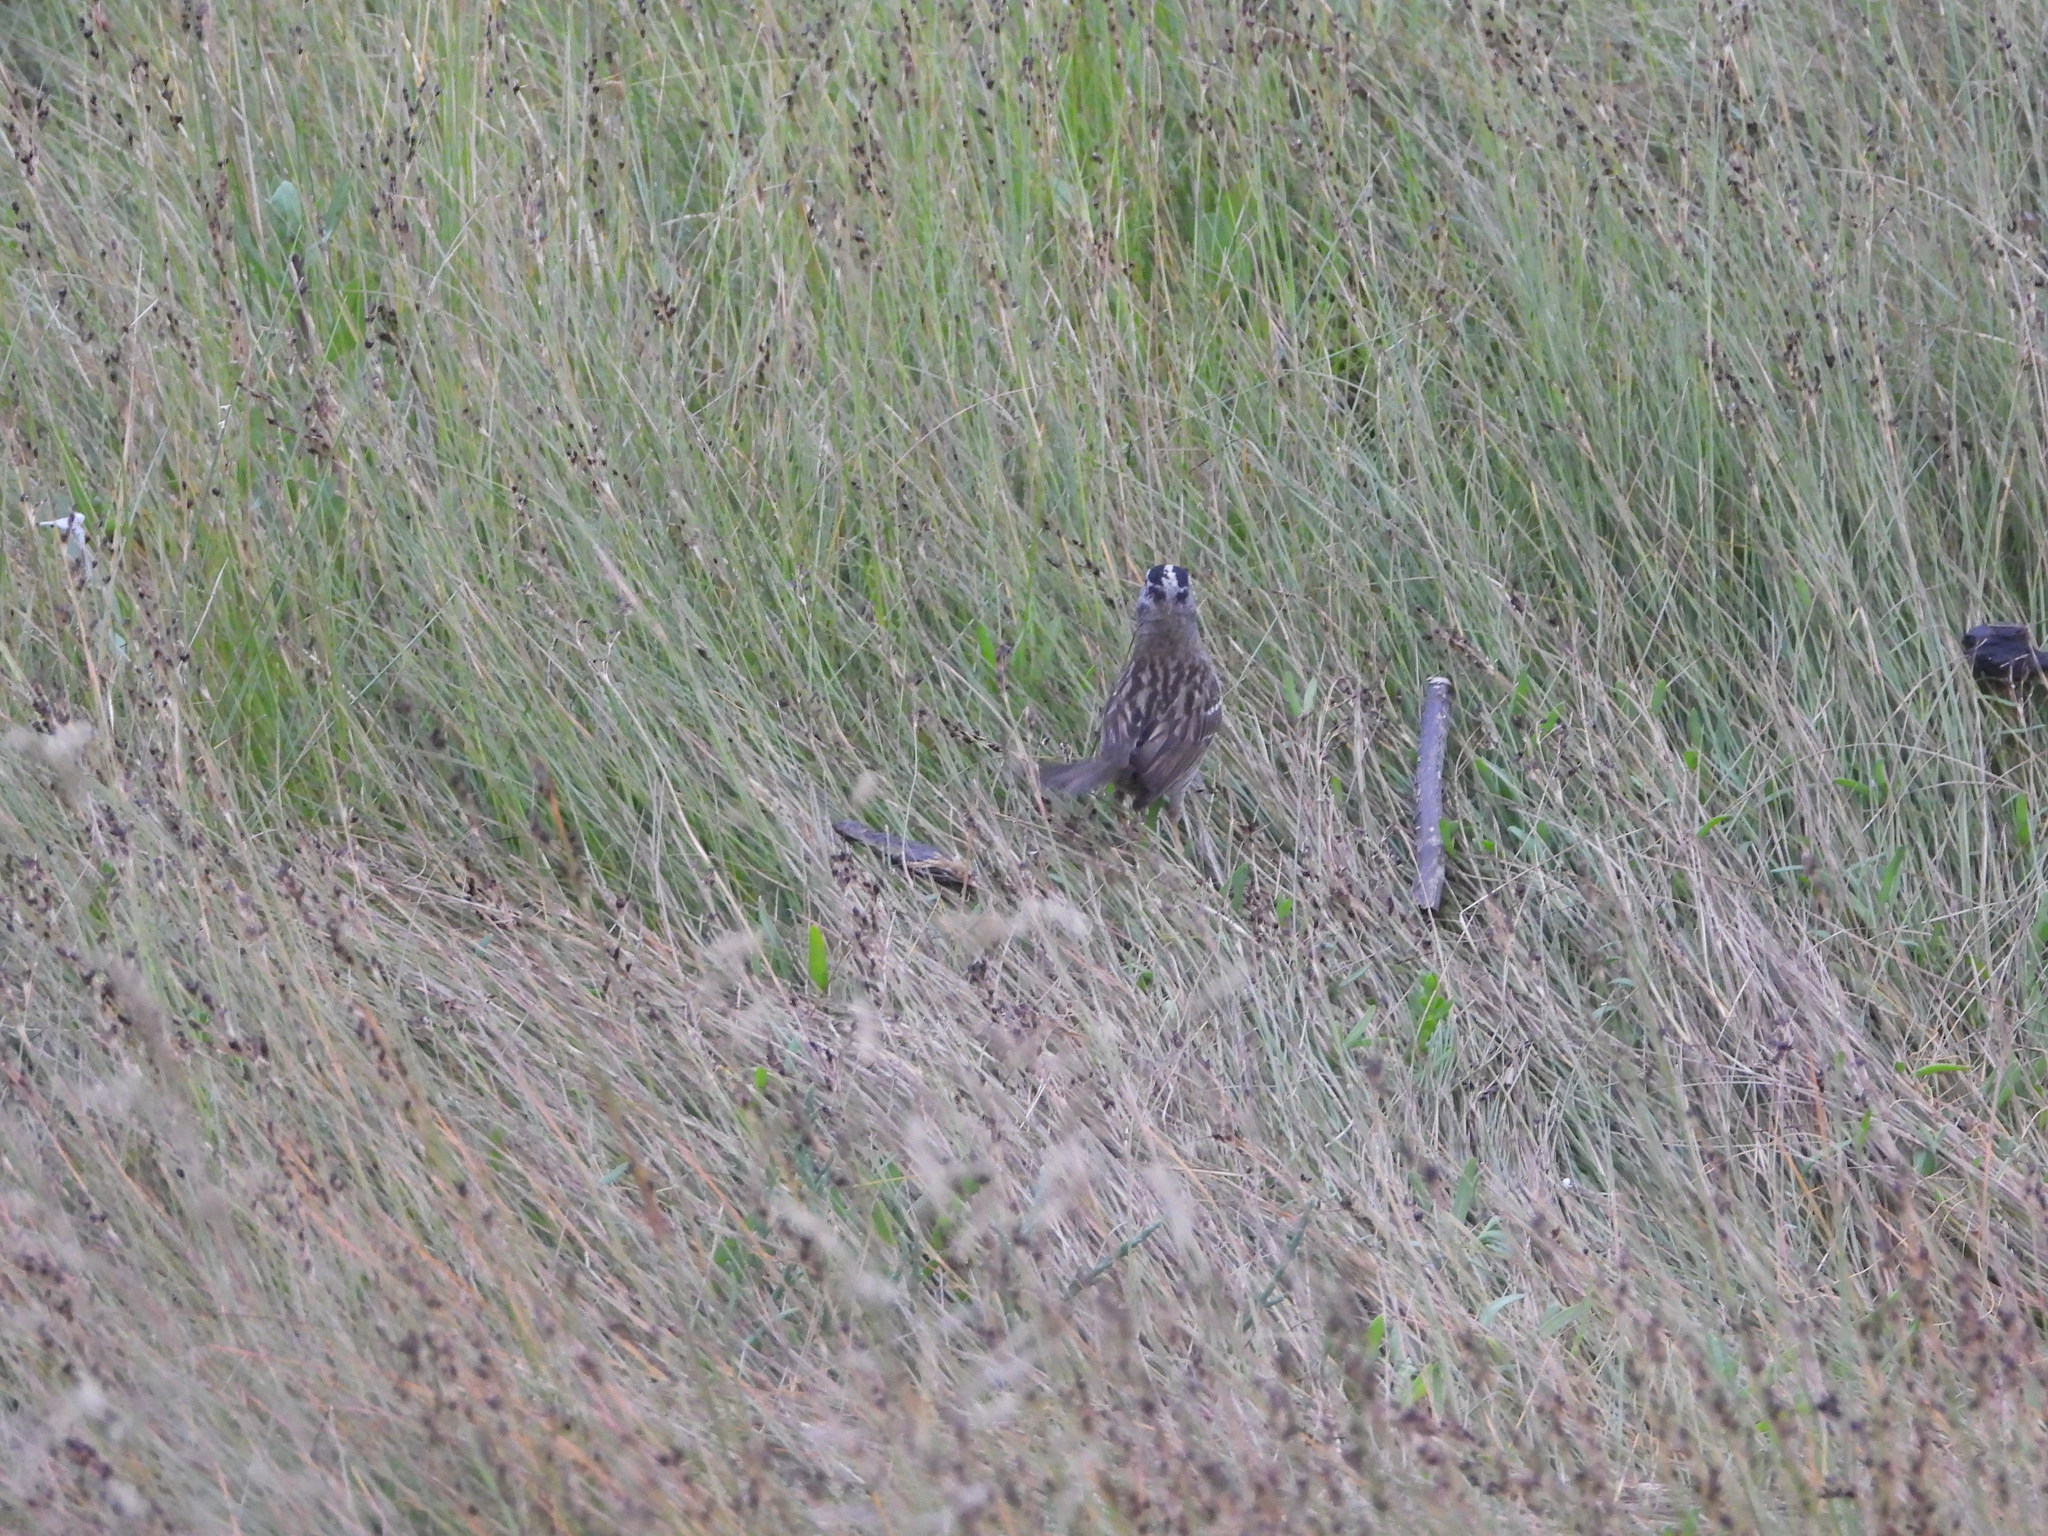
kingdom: Animalia
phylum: Chordata
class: Aves
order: Passeriformes
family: Passerellidae
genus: Zonotrichia
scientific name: Zonotrichia leucophrys
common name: White-crowned sparrow
